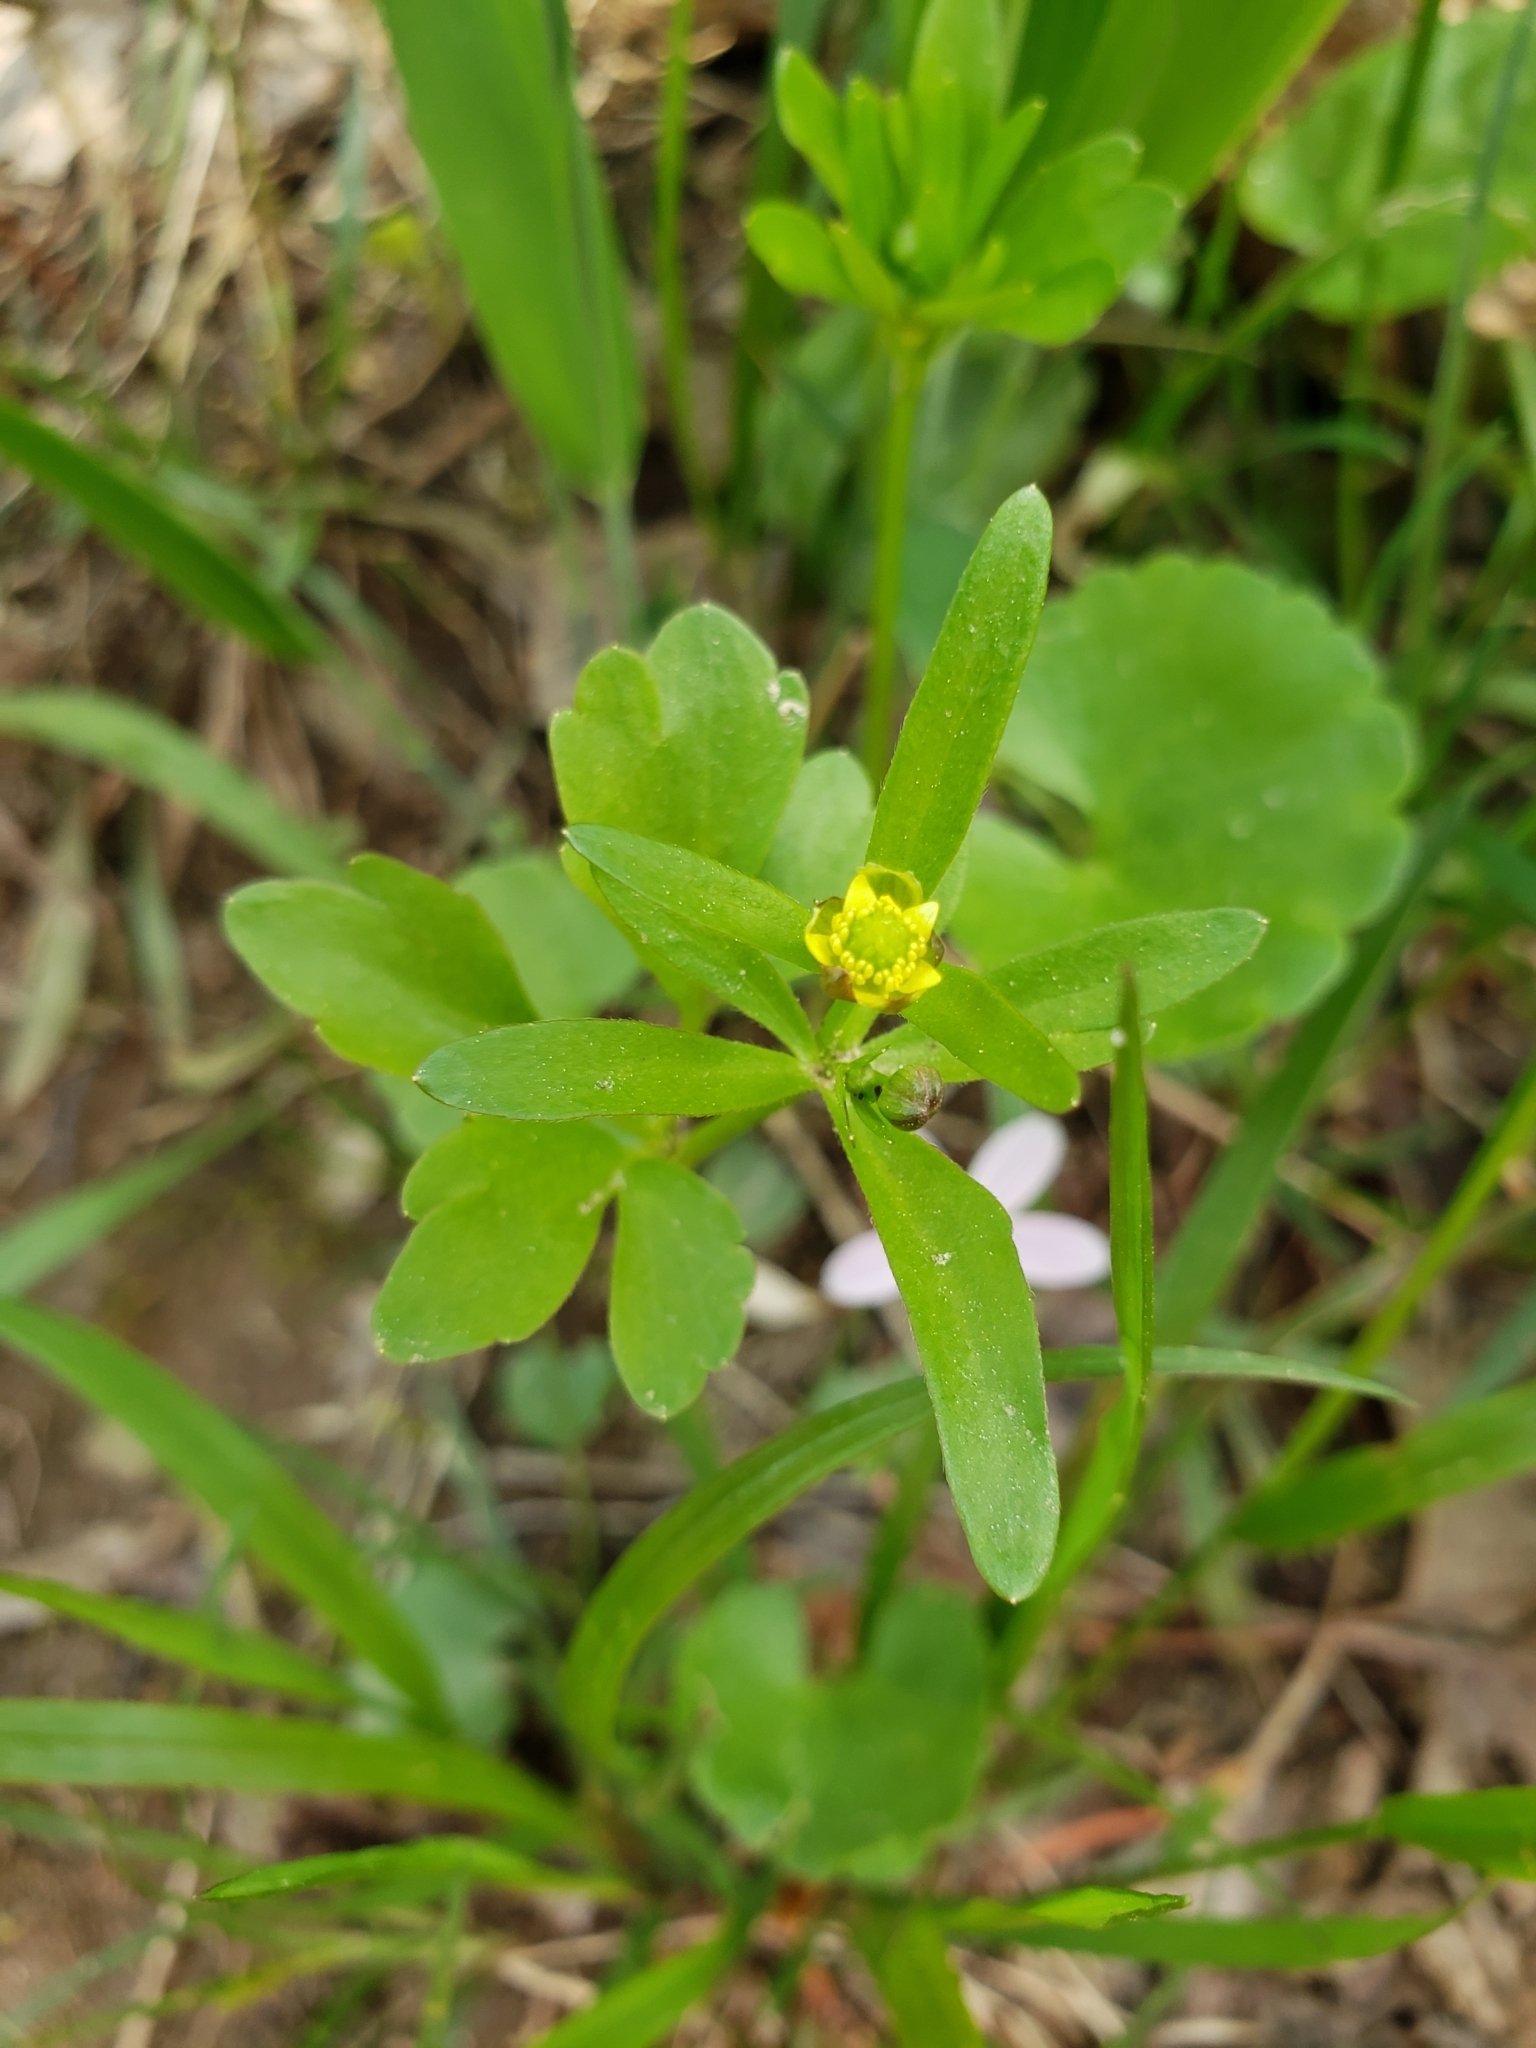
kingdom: Plantae
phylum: Tracheophyta
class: Magnoliopsida
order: Ranunculales
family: Ranunculaceae
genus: Ranunculus
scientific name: Ranunculus abortivus
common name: Early wood buttercup
